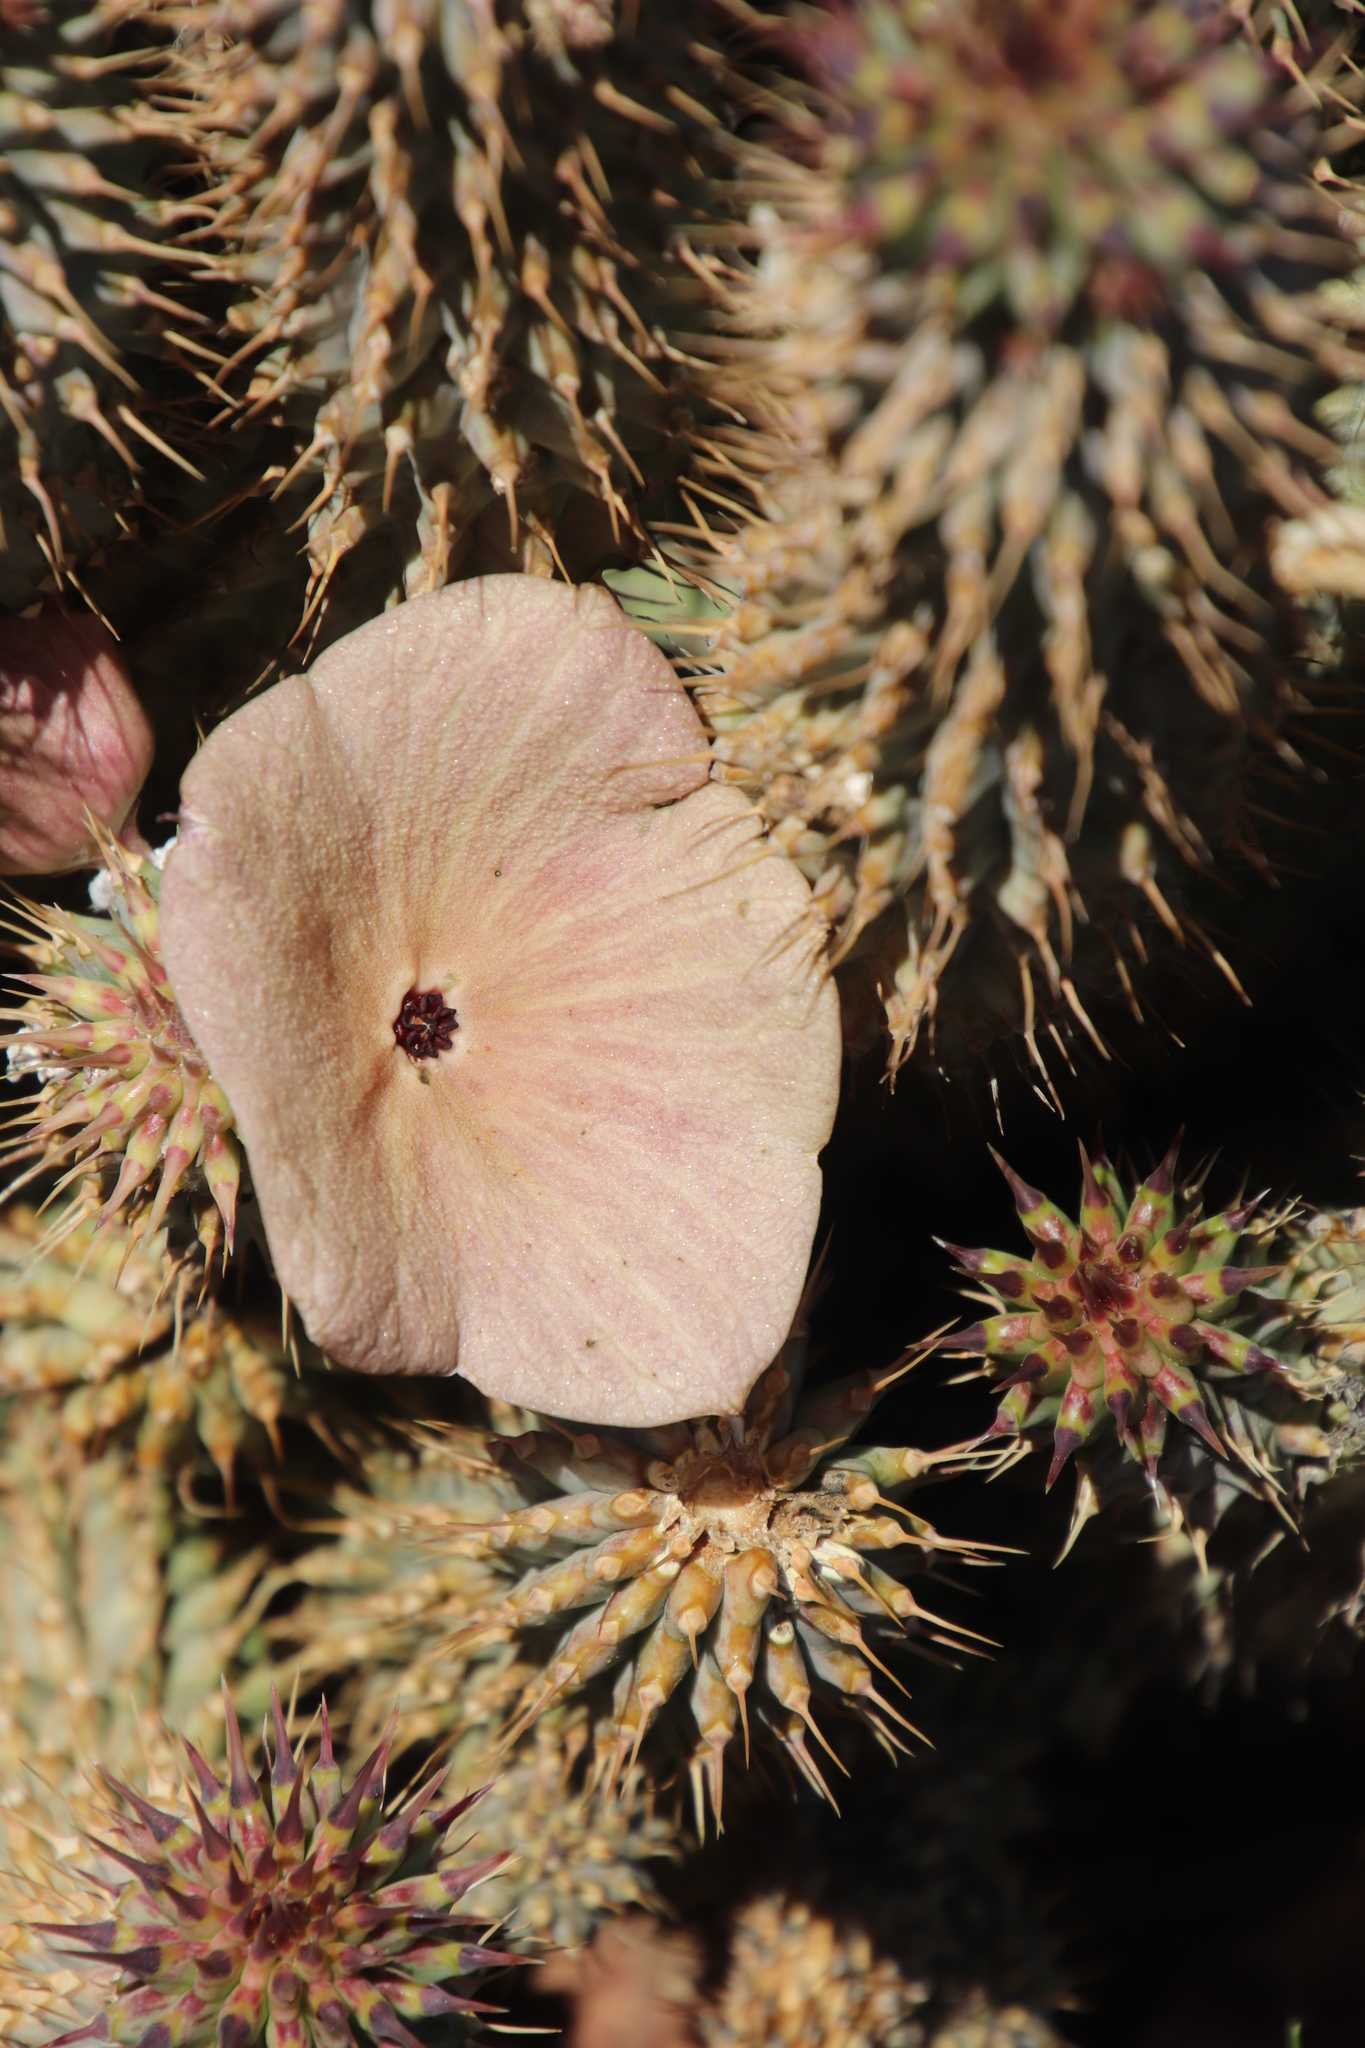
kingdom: Plantae
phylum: Tracheophyta
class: Magnoliopsida
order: Gentianales
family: Apocynaceae
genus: Hoodia
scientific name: Hoodia gordonii
